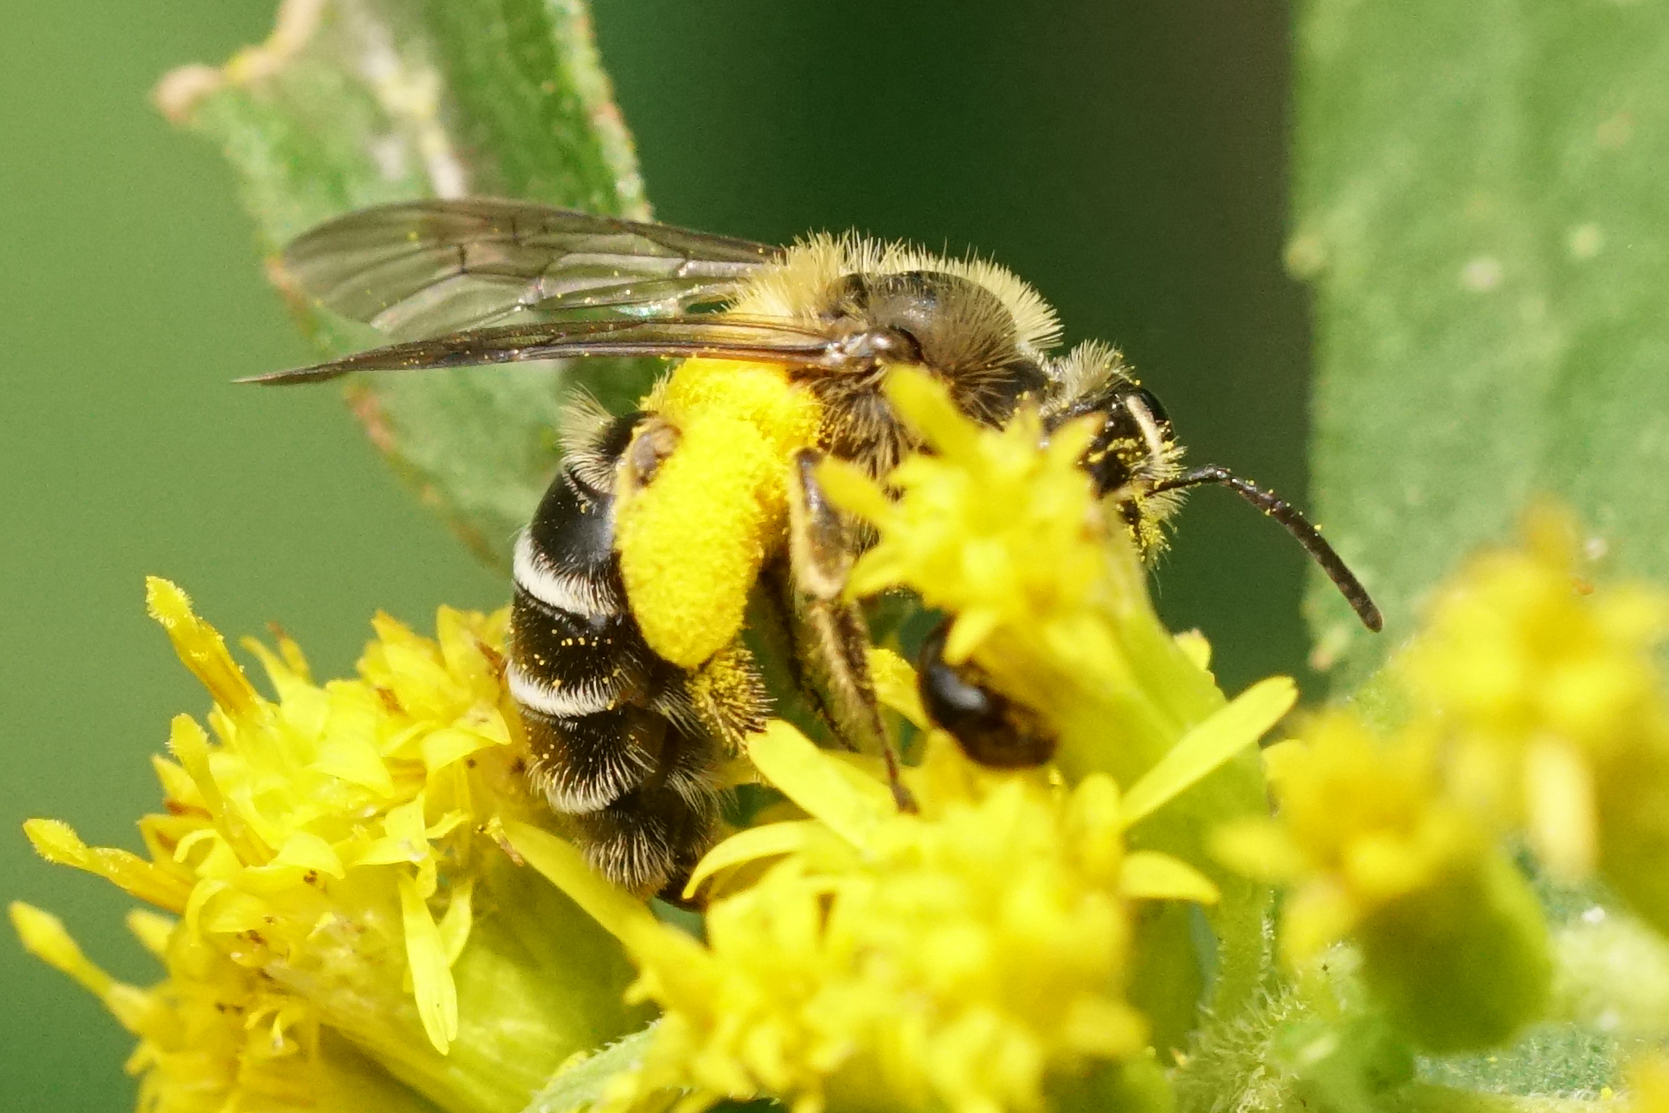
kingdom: Animalia
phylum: Arthropoda
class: Insecta
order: Hymenoptera
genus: Cnemidandrena
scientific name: Cnemidandrena
